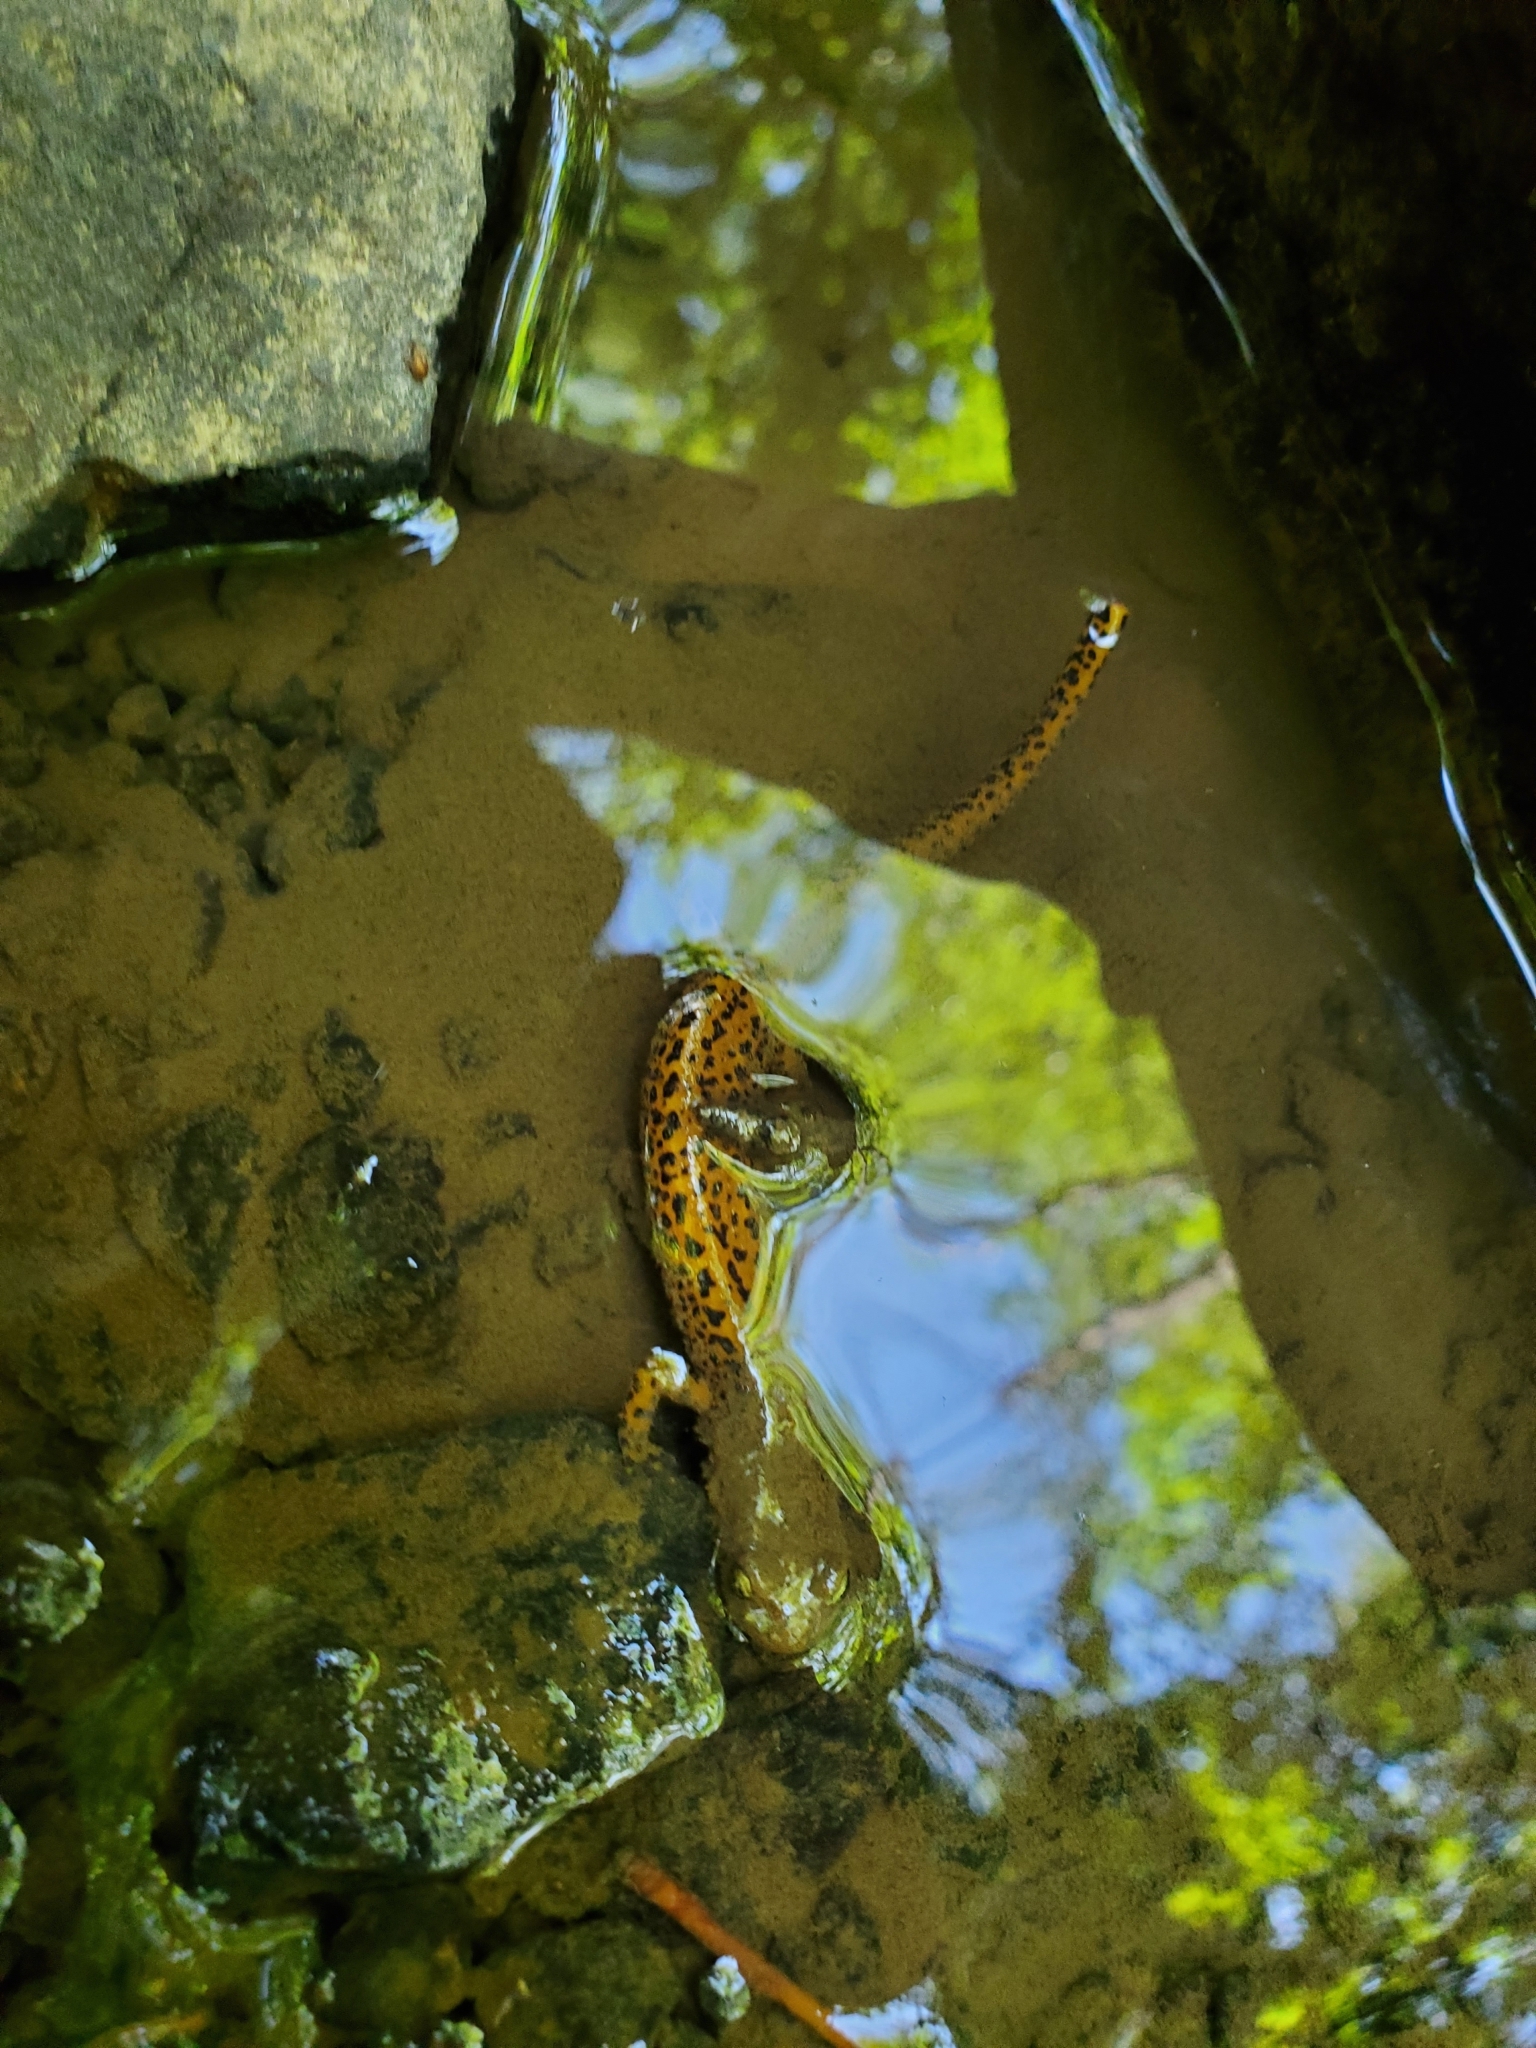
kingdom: Animalia
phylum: Chordata
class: Amphibia
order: Caudata
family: Plethodontidae
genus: Eurycea
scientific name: Eurycea longicauda
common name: Long-tailed salamander
